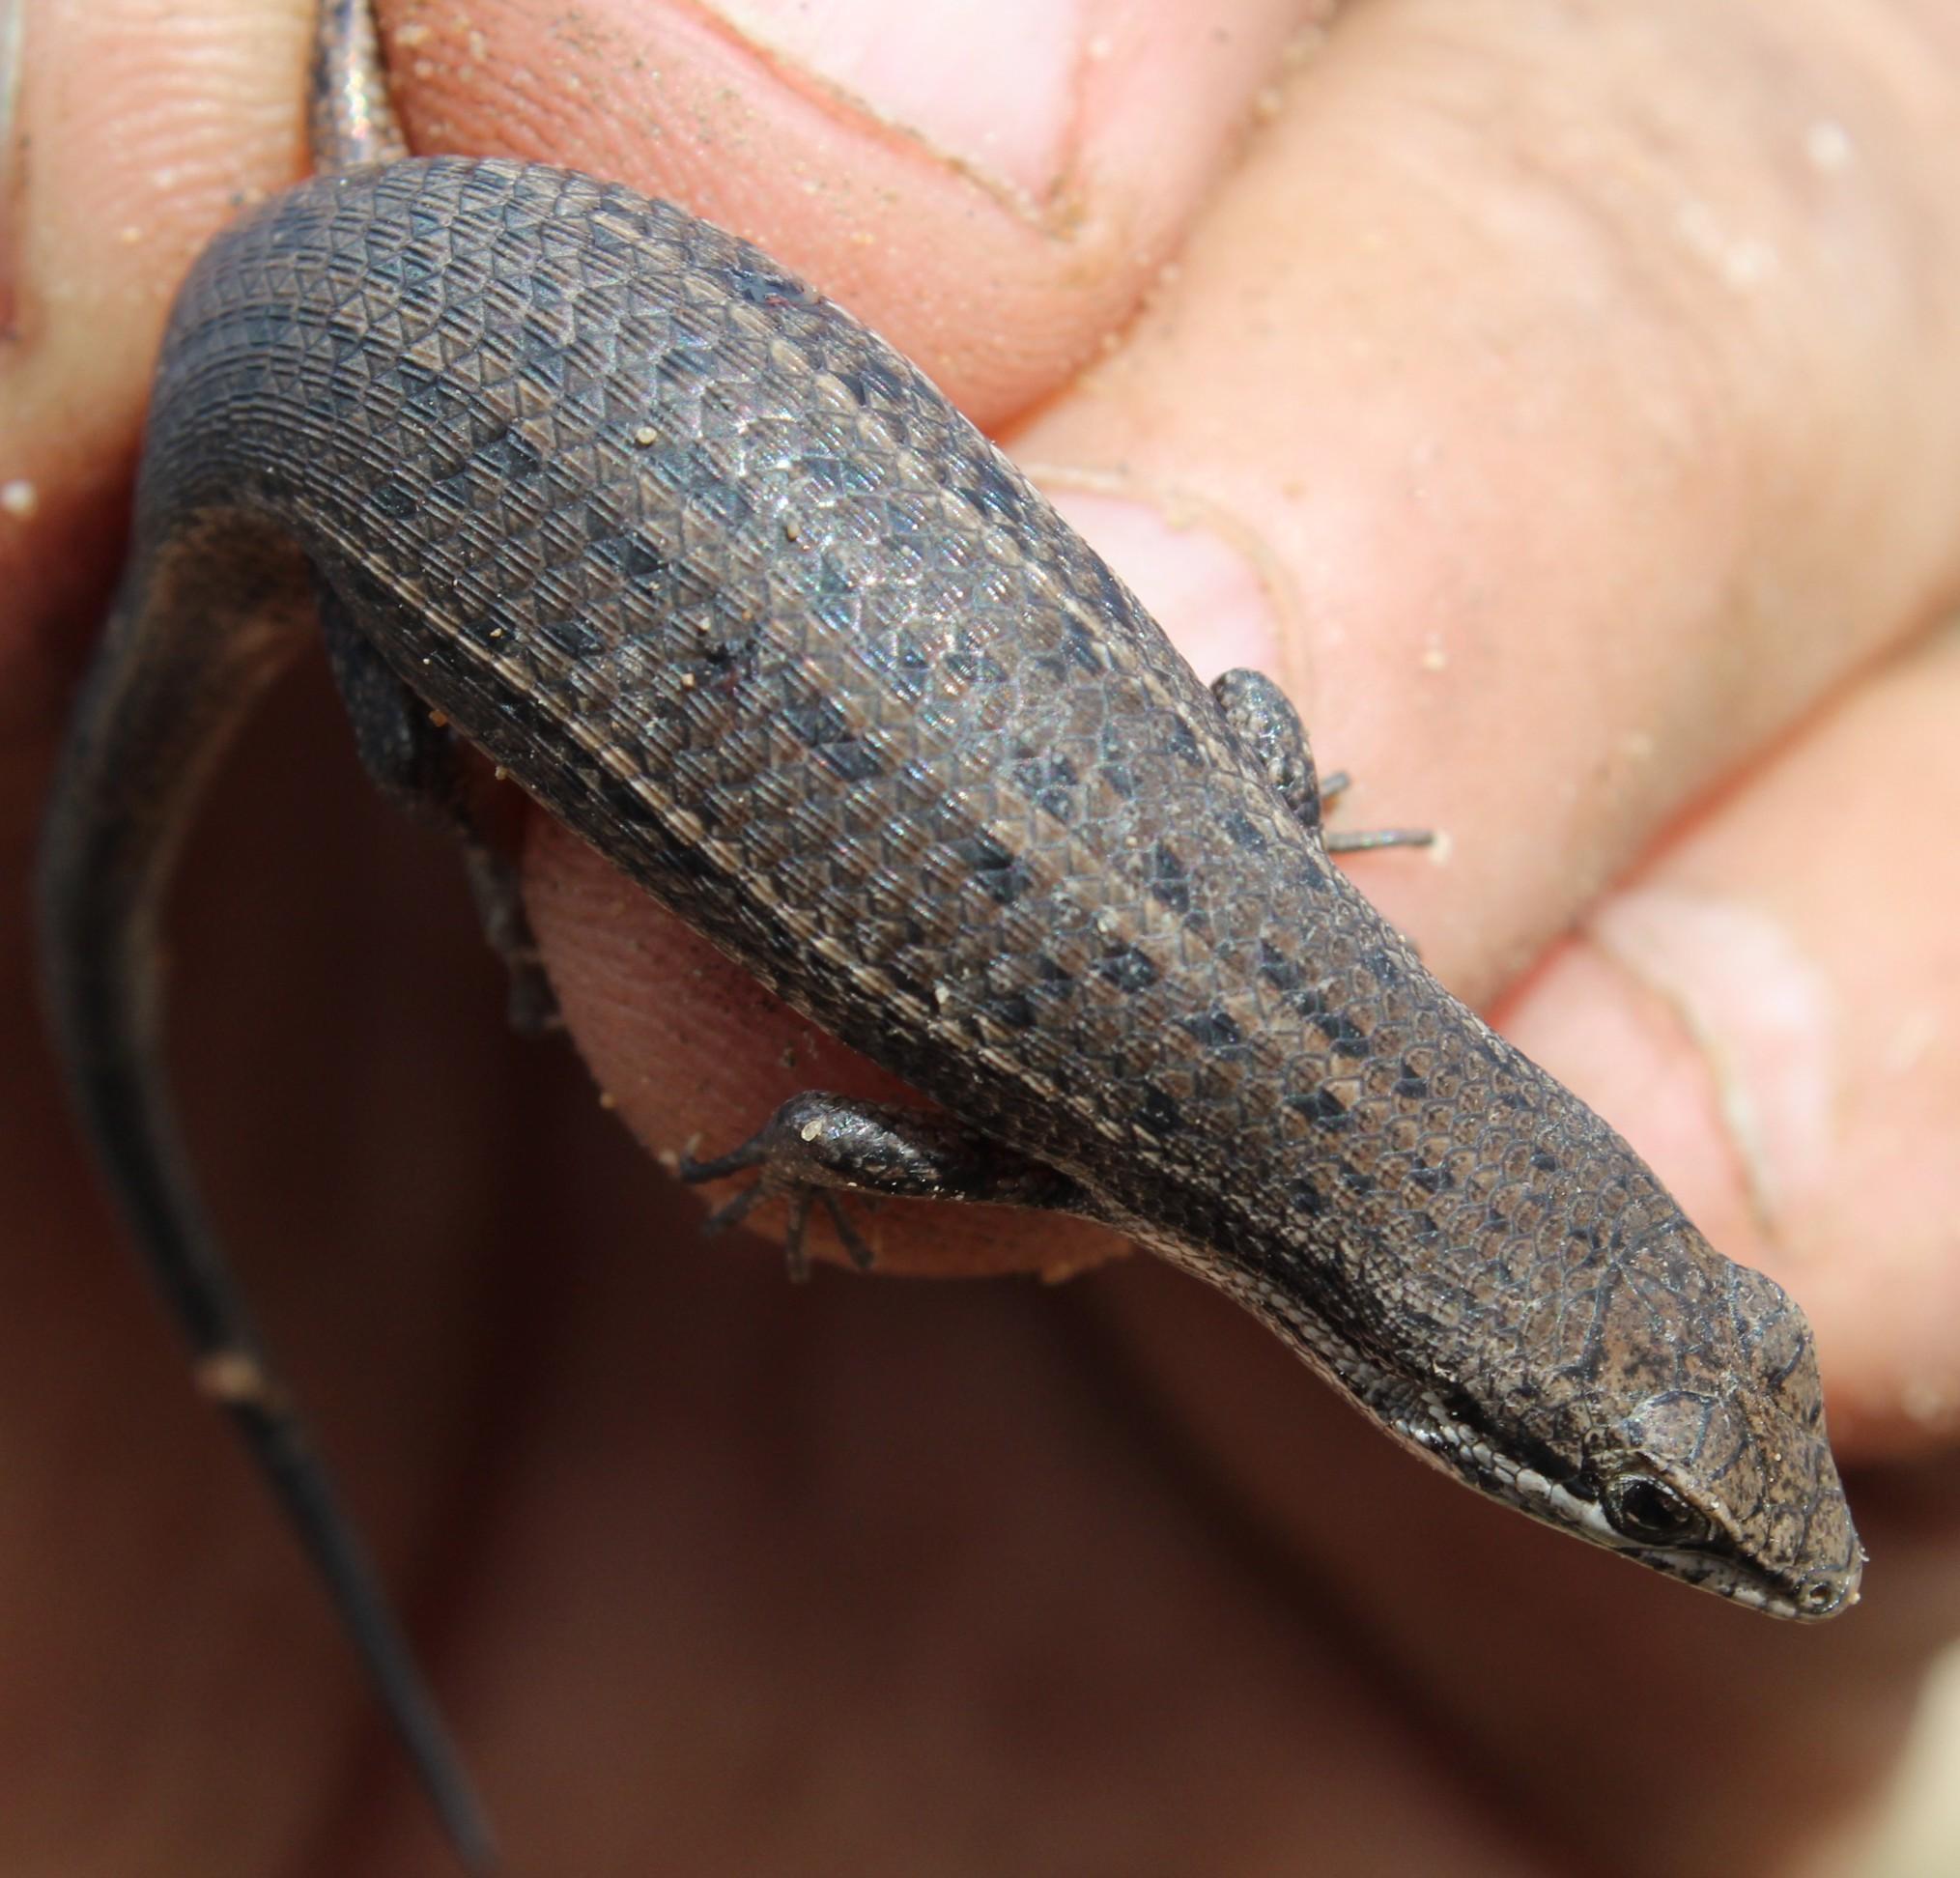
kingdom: Animalia
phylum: Chordata
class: Squamata
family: Scincidae
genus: Trachylepis
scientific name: Trachylepis variegata
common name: Variegated skink
